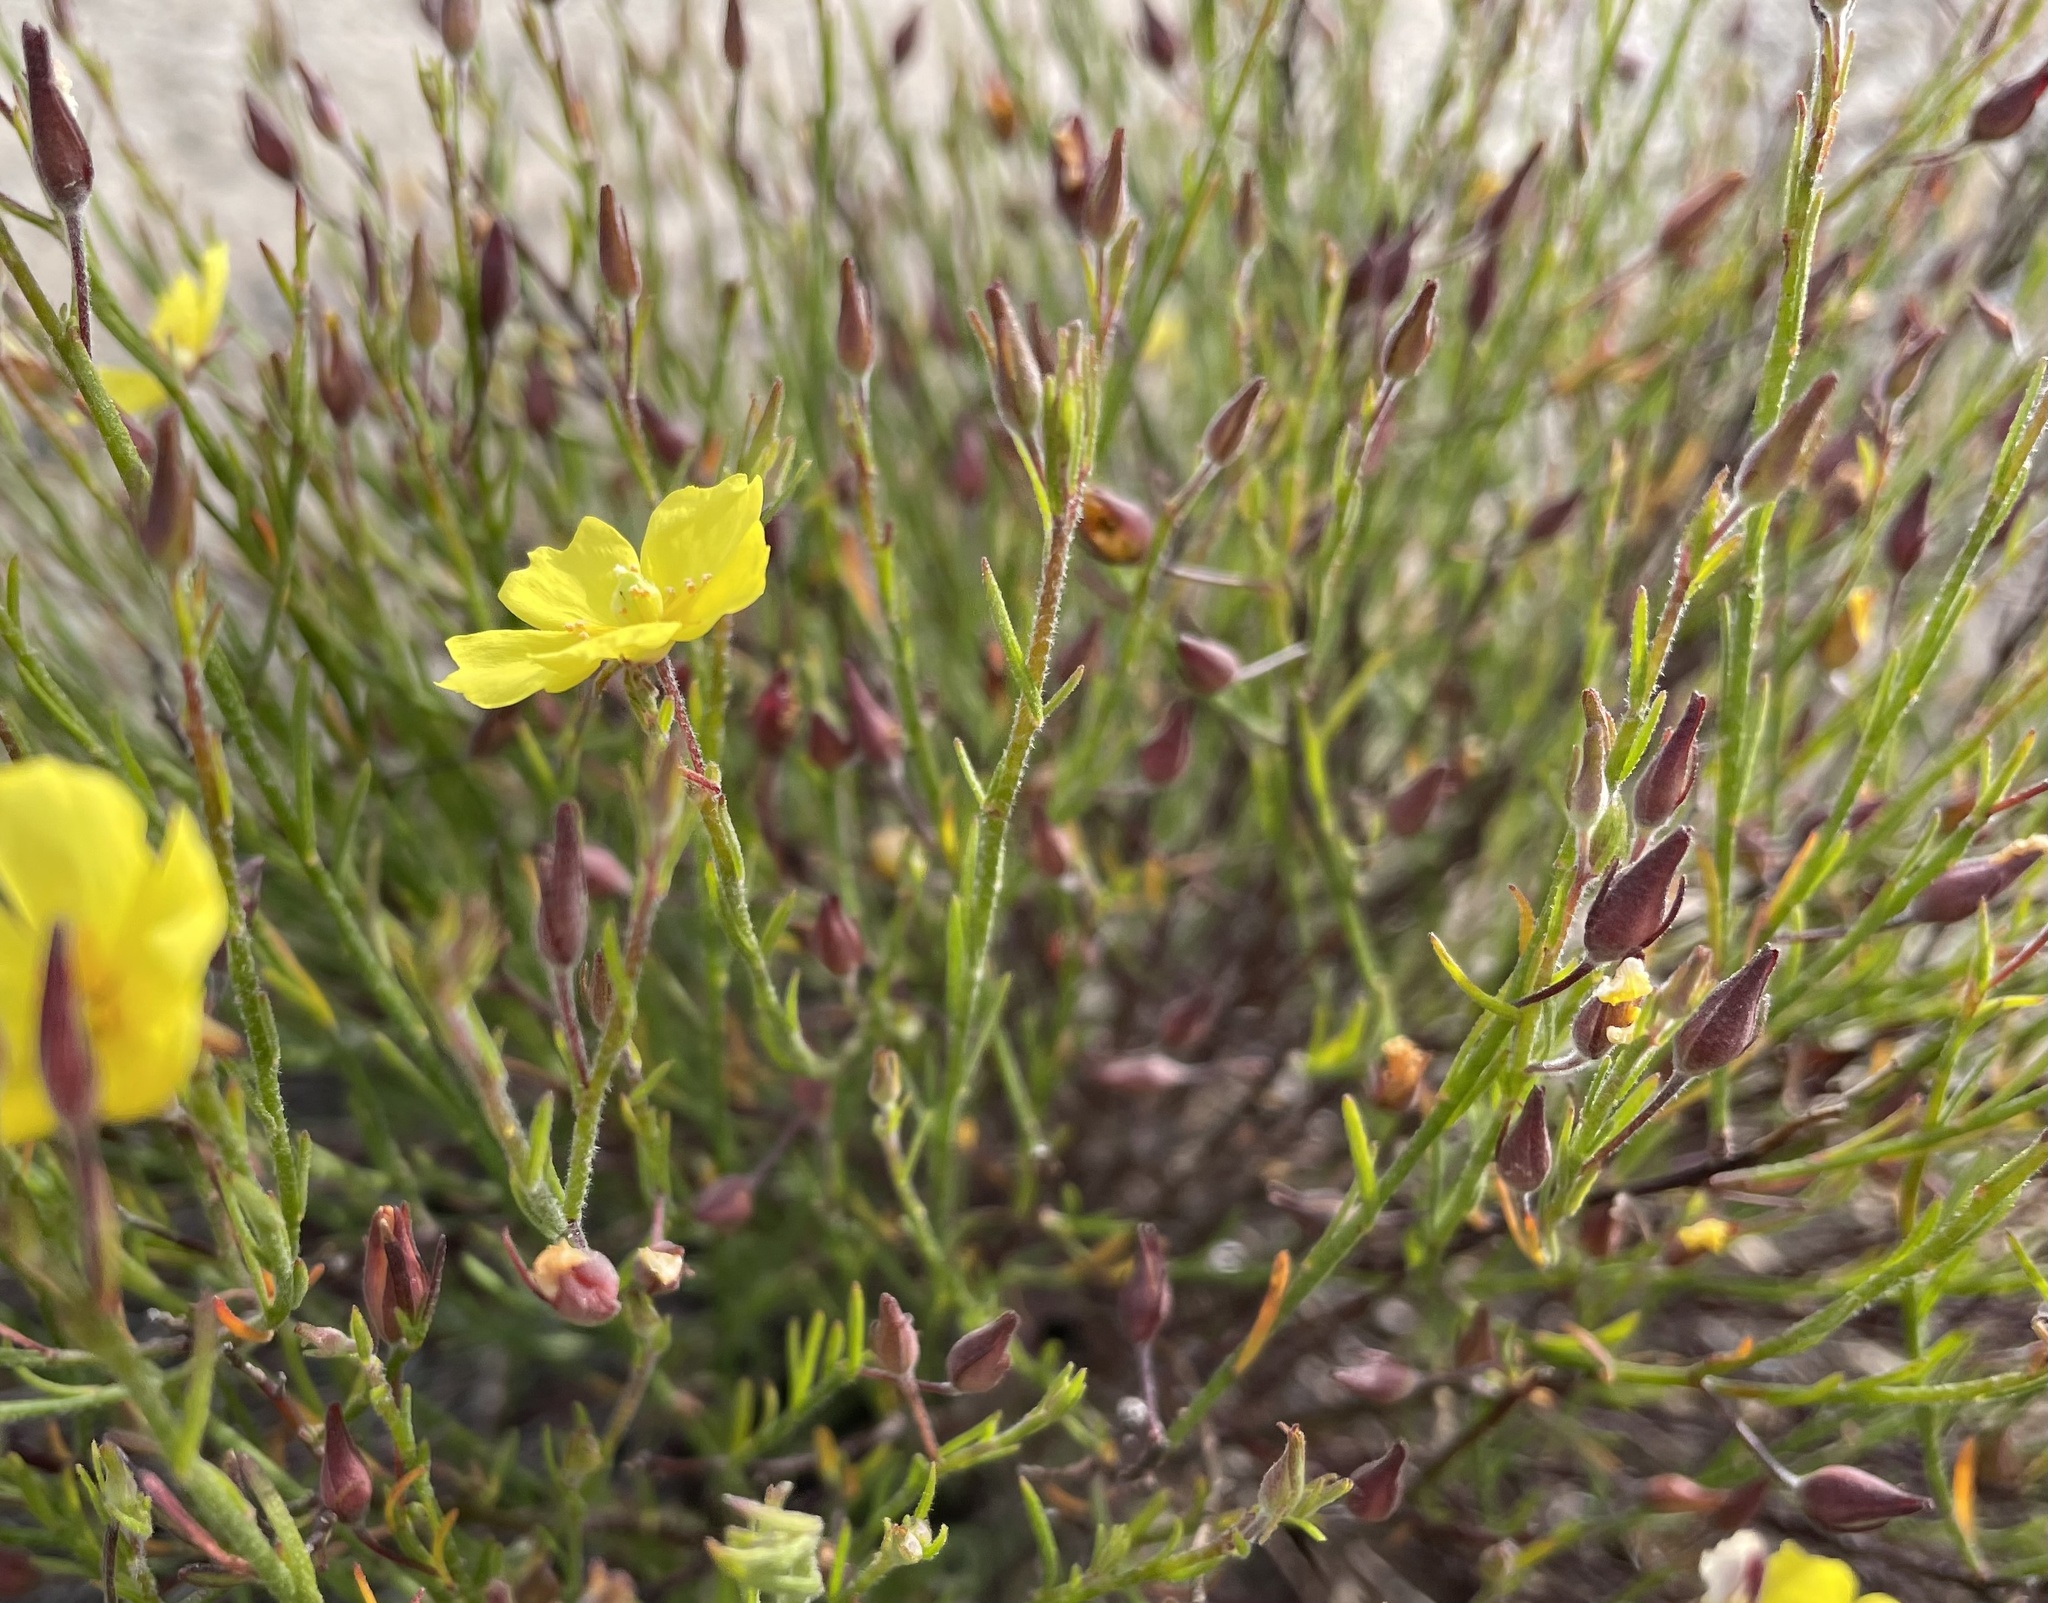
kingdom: Plantae
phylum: Tracheophyta
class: Magnoliopsida
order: Malvales
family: Cistaceae
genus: Crocanthemum
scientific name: Crocanthemum scoparium
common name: Broom-rose
